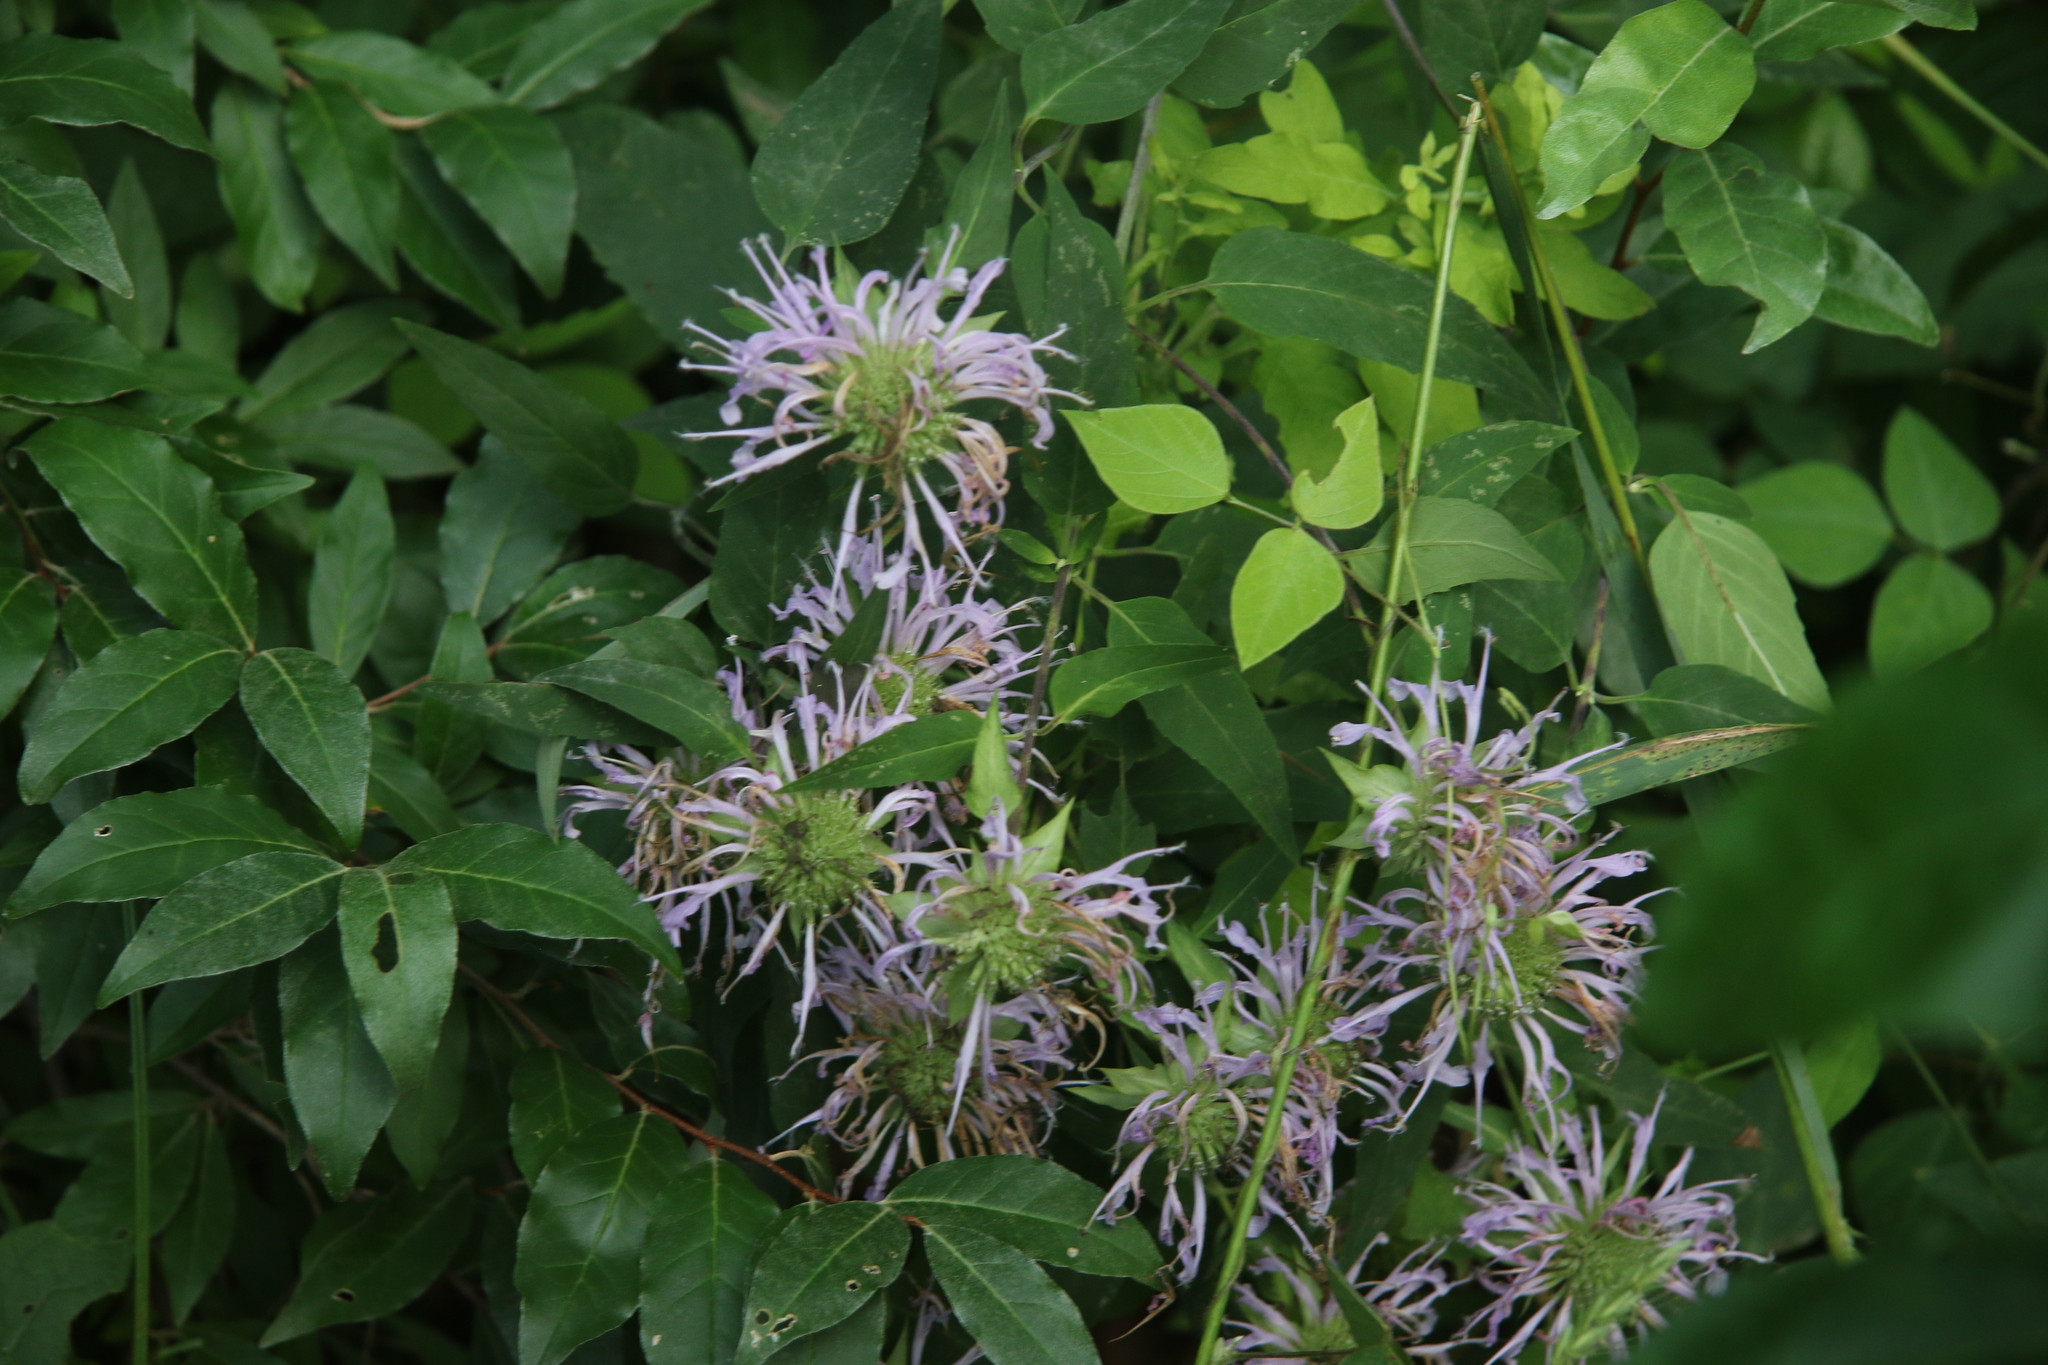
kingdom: Plantae
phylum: Tracheophyta
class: Magnoliopsida
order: Lamiales
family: Lamiaceae
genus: Monarda
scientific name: Monarda fistulosa
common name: Purple beebalm
